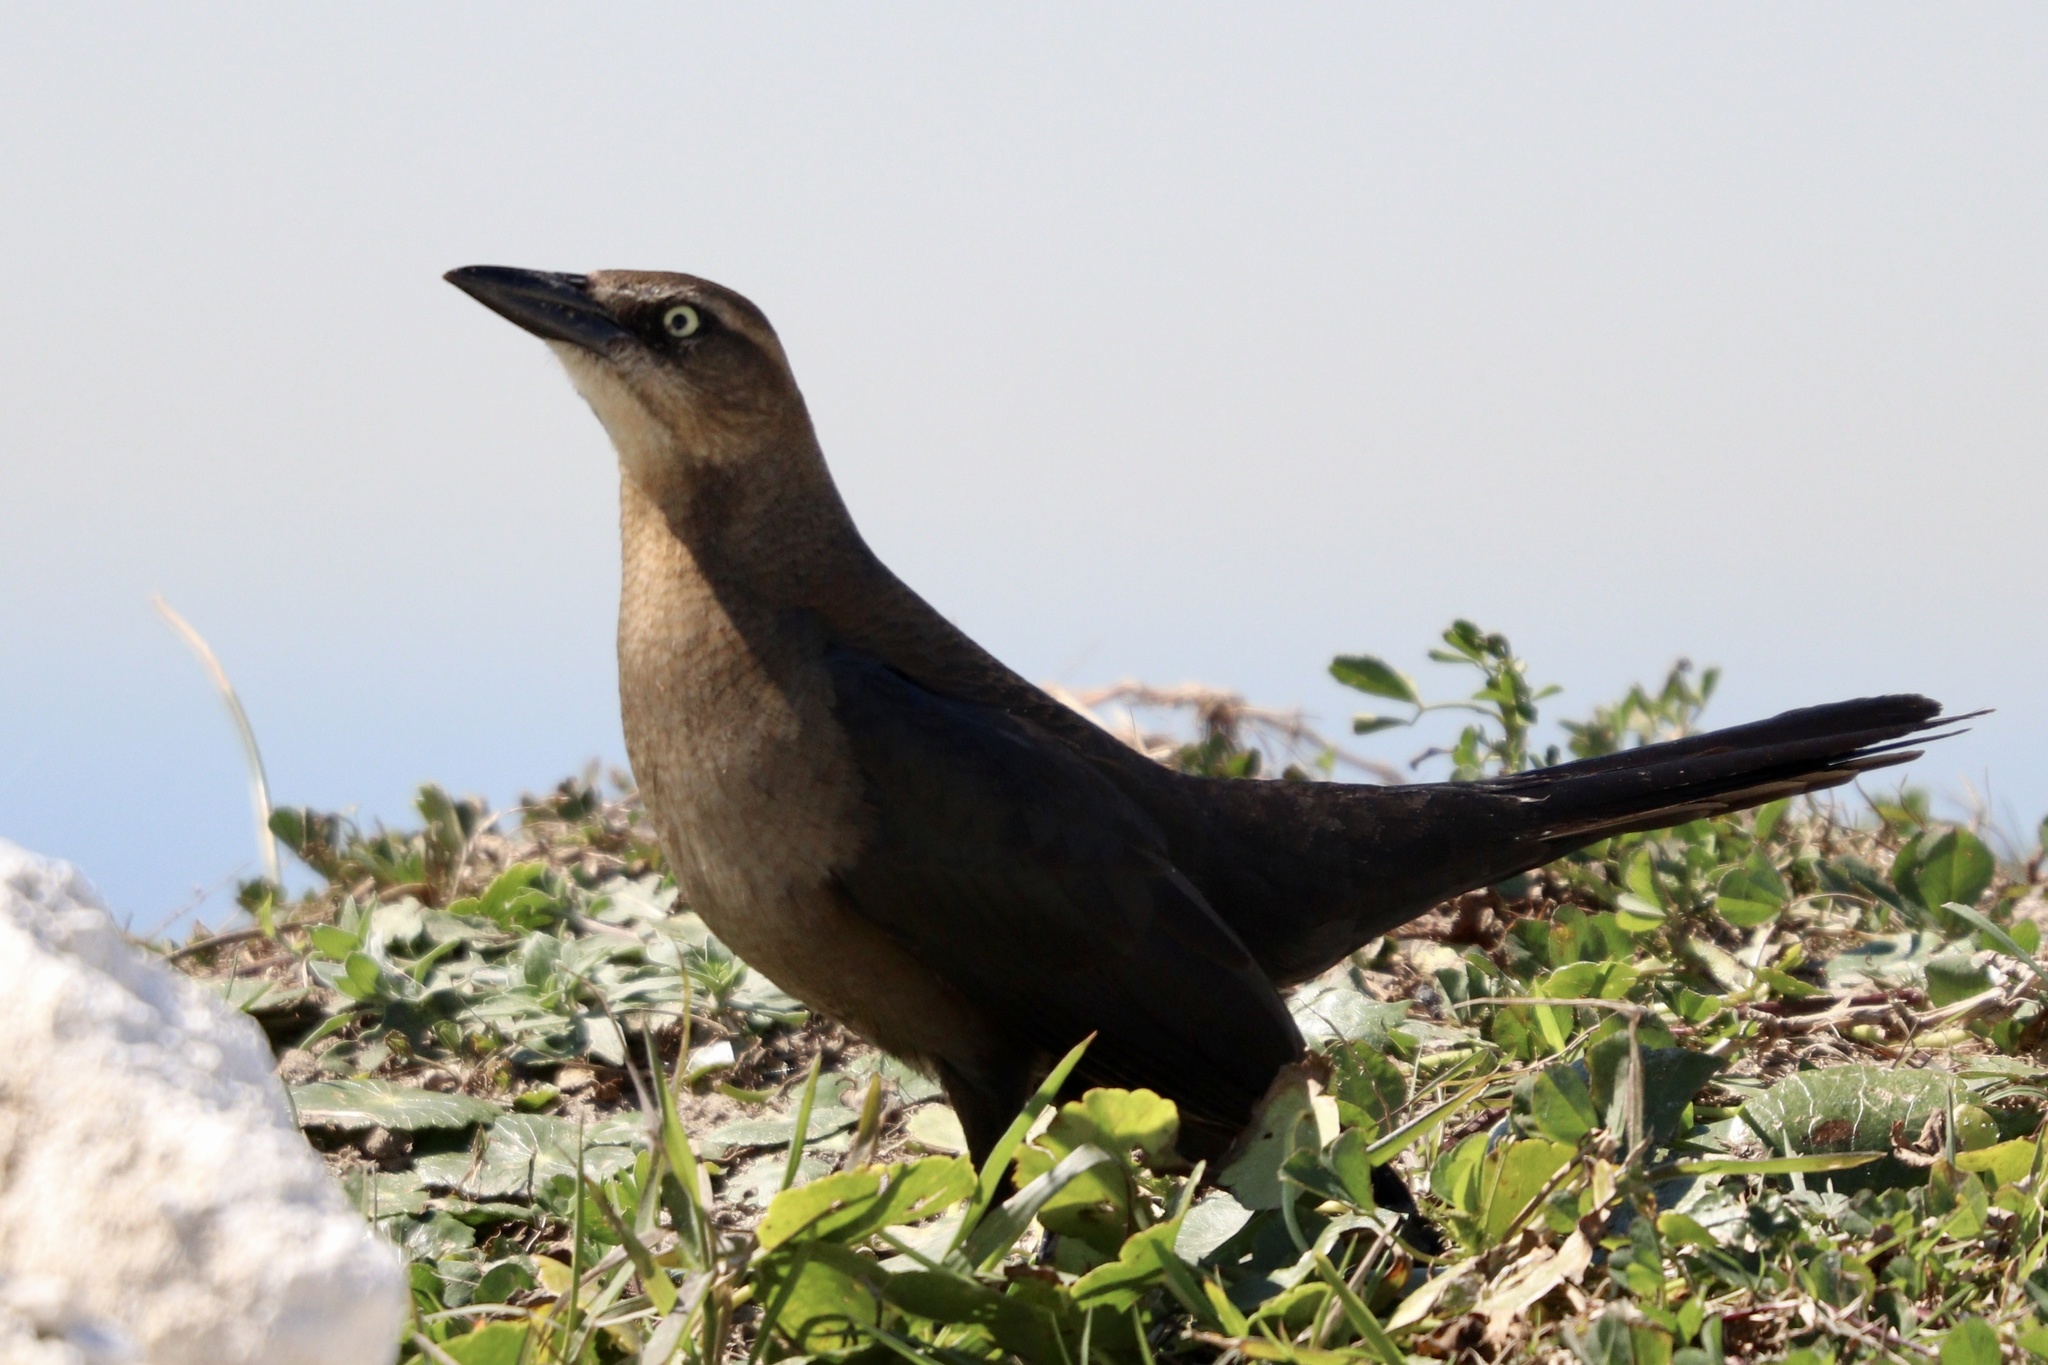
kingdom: Animalia
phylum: Chordata
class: Aves
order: Passeriformes
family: Icteridae
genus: Quiscalus
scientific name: Quiscalus mexicanus
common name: Great-tailed grackle
